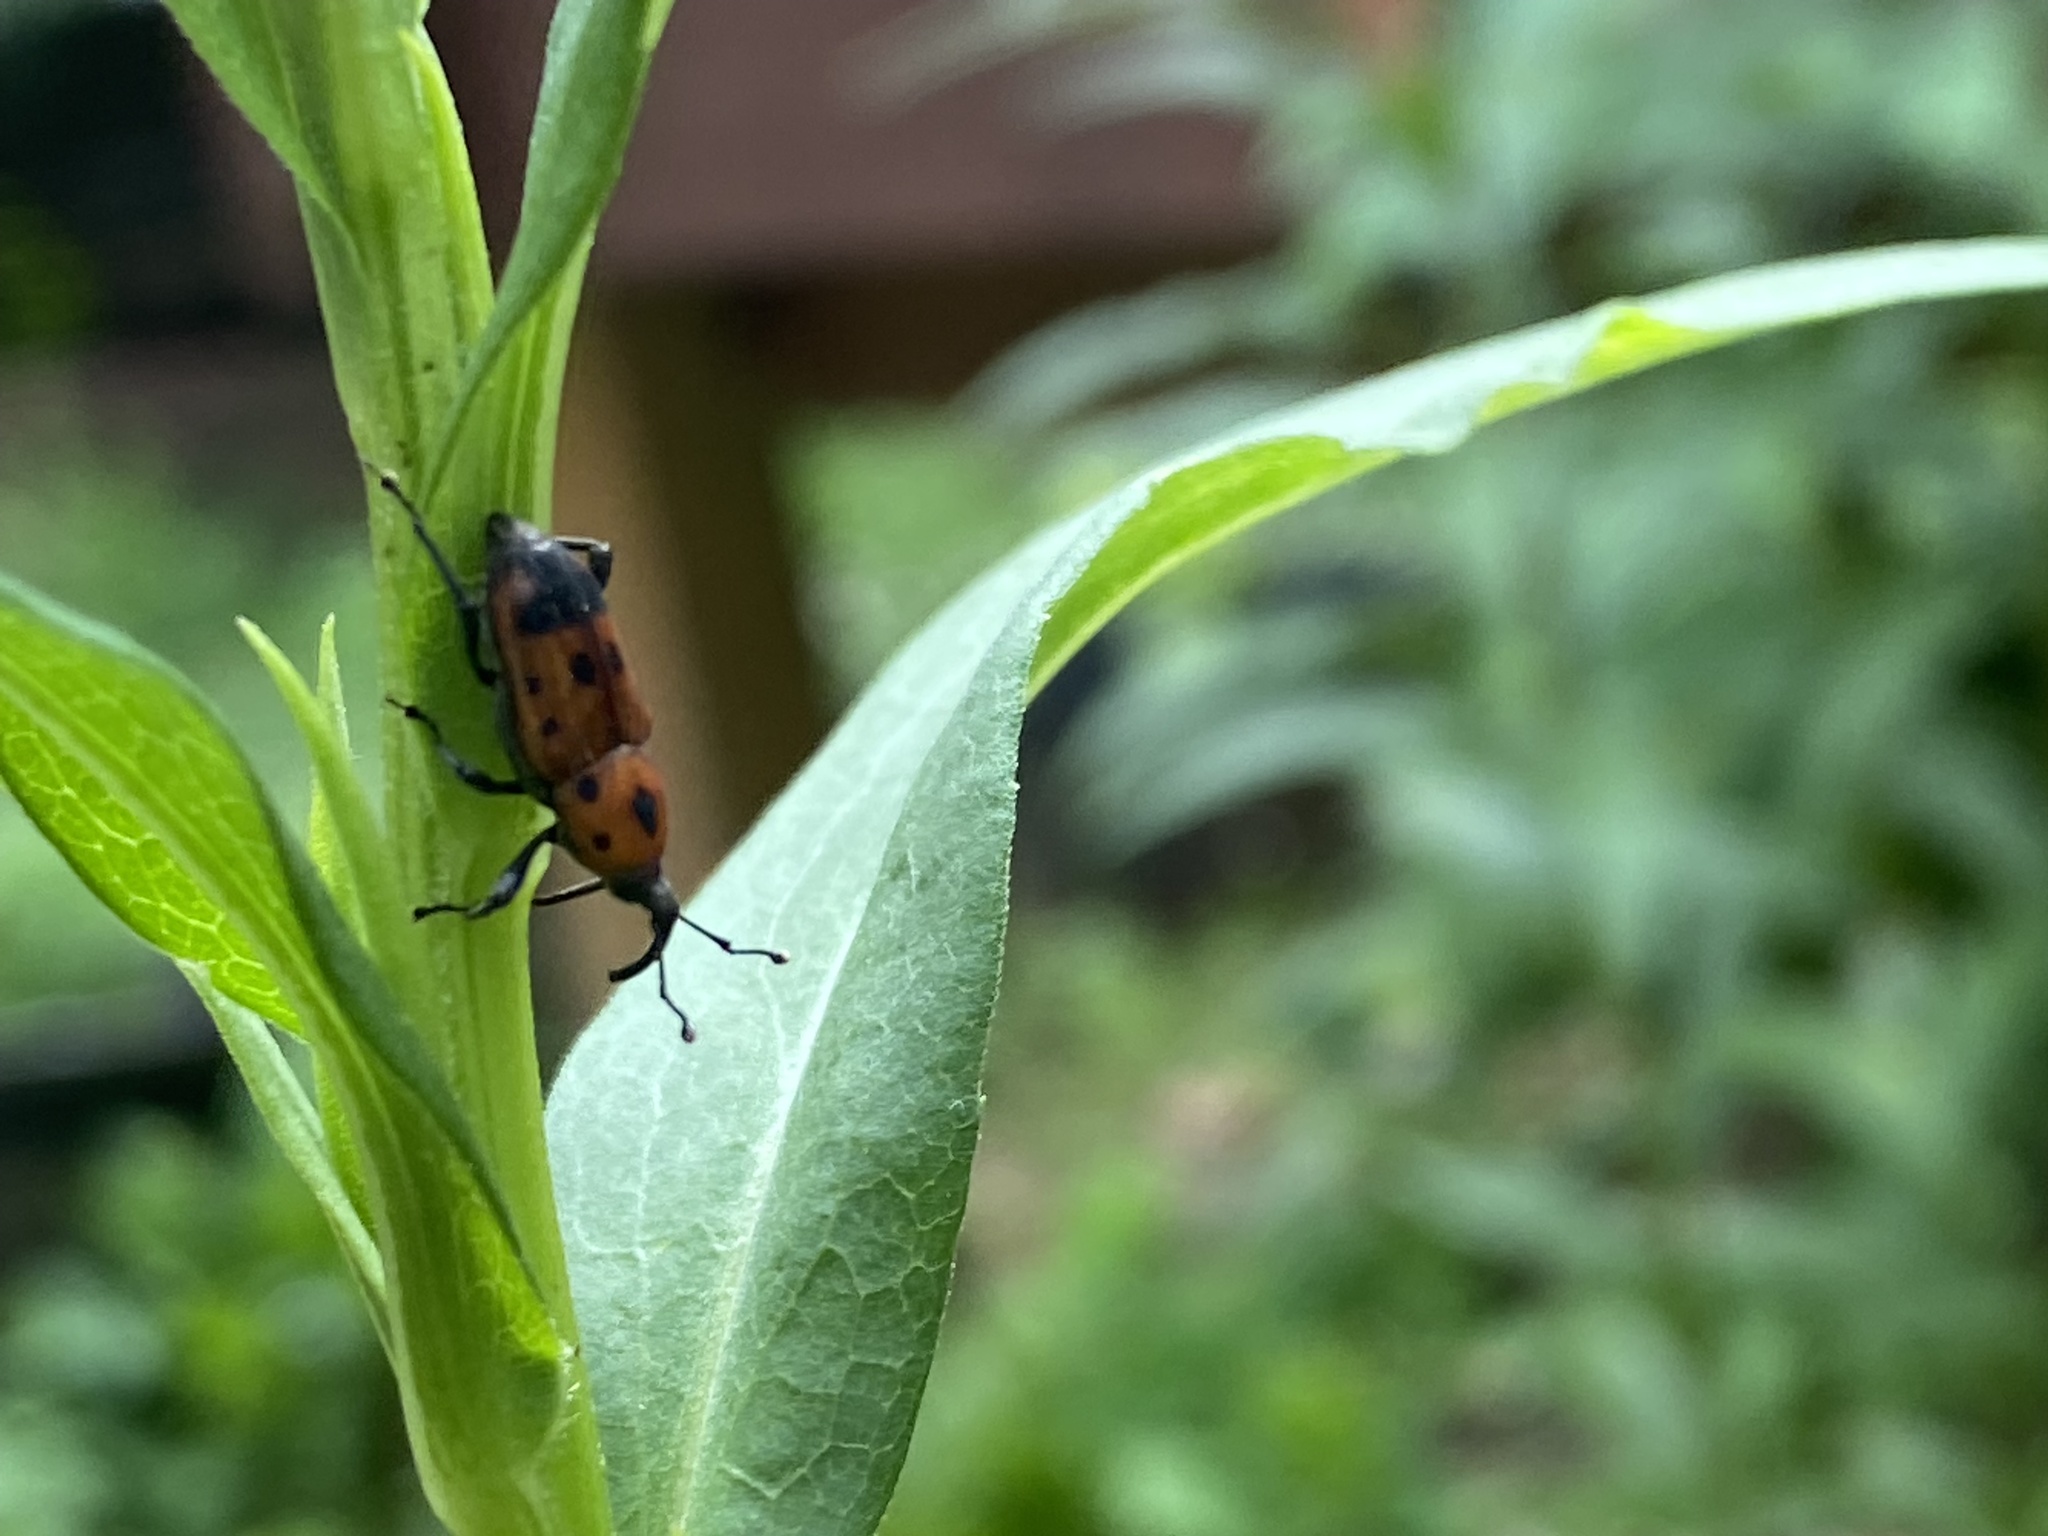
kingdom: Animalia
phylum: Arthropoda
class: Insecta
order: Coleoptera
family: Dryophthoridae
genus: Rhodobaenus
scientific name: Rhodobaenus quinquepunctatus
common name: Cocklebur weevil
